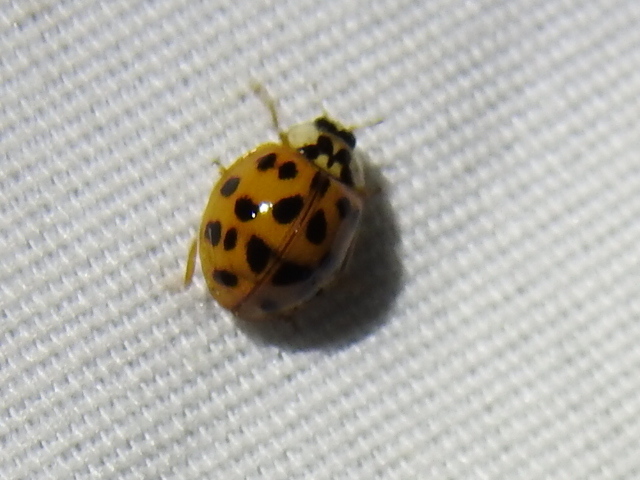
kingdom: Animalia
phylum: Arthropoda
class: Insecta
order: Coleoptera
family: Coccinellidae
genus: Harmonia
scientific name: Harmonia axyridis
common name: Harlequin ladybird
